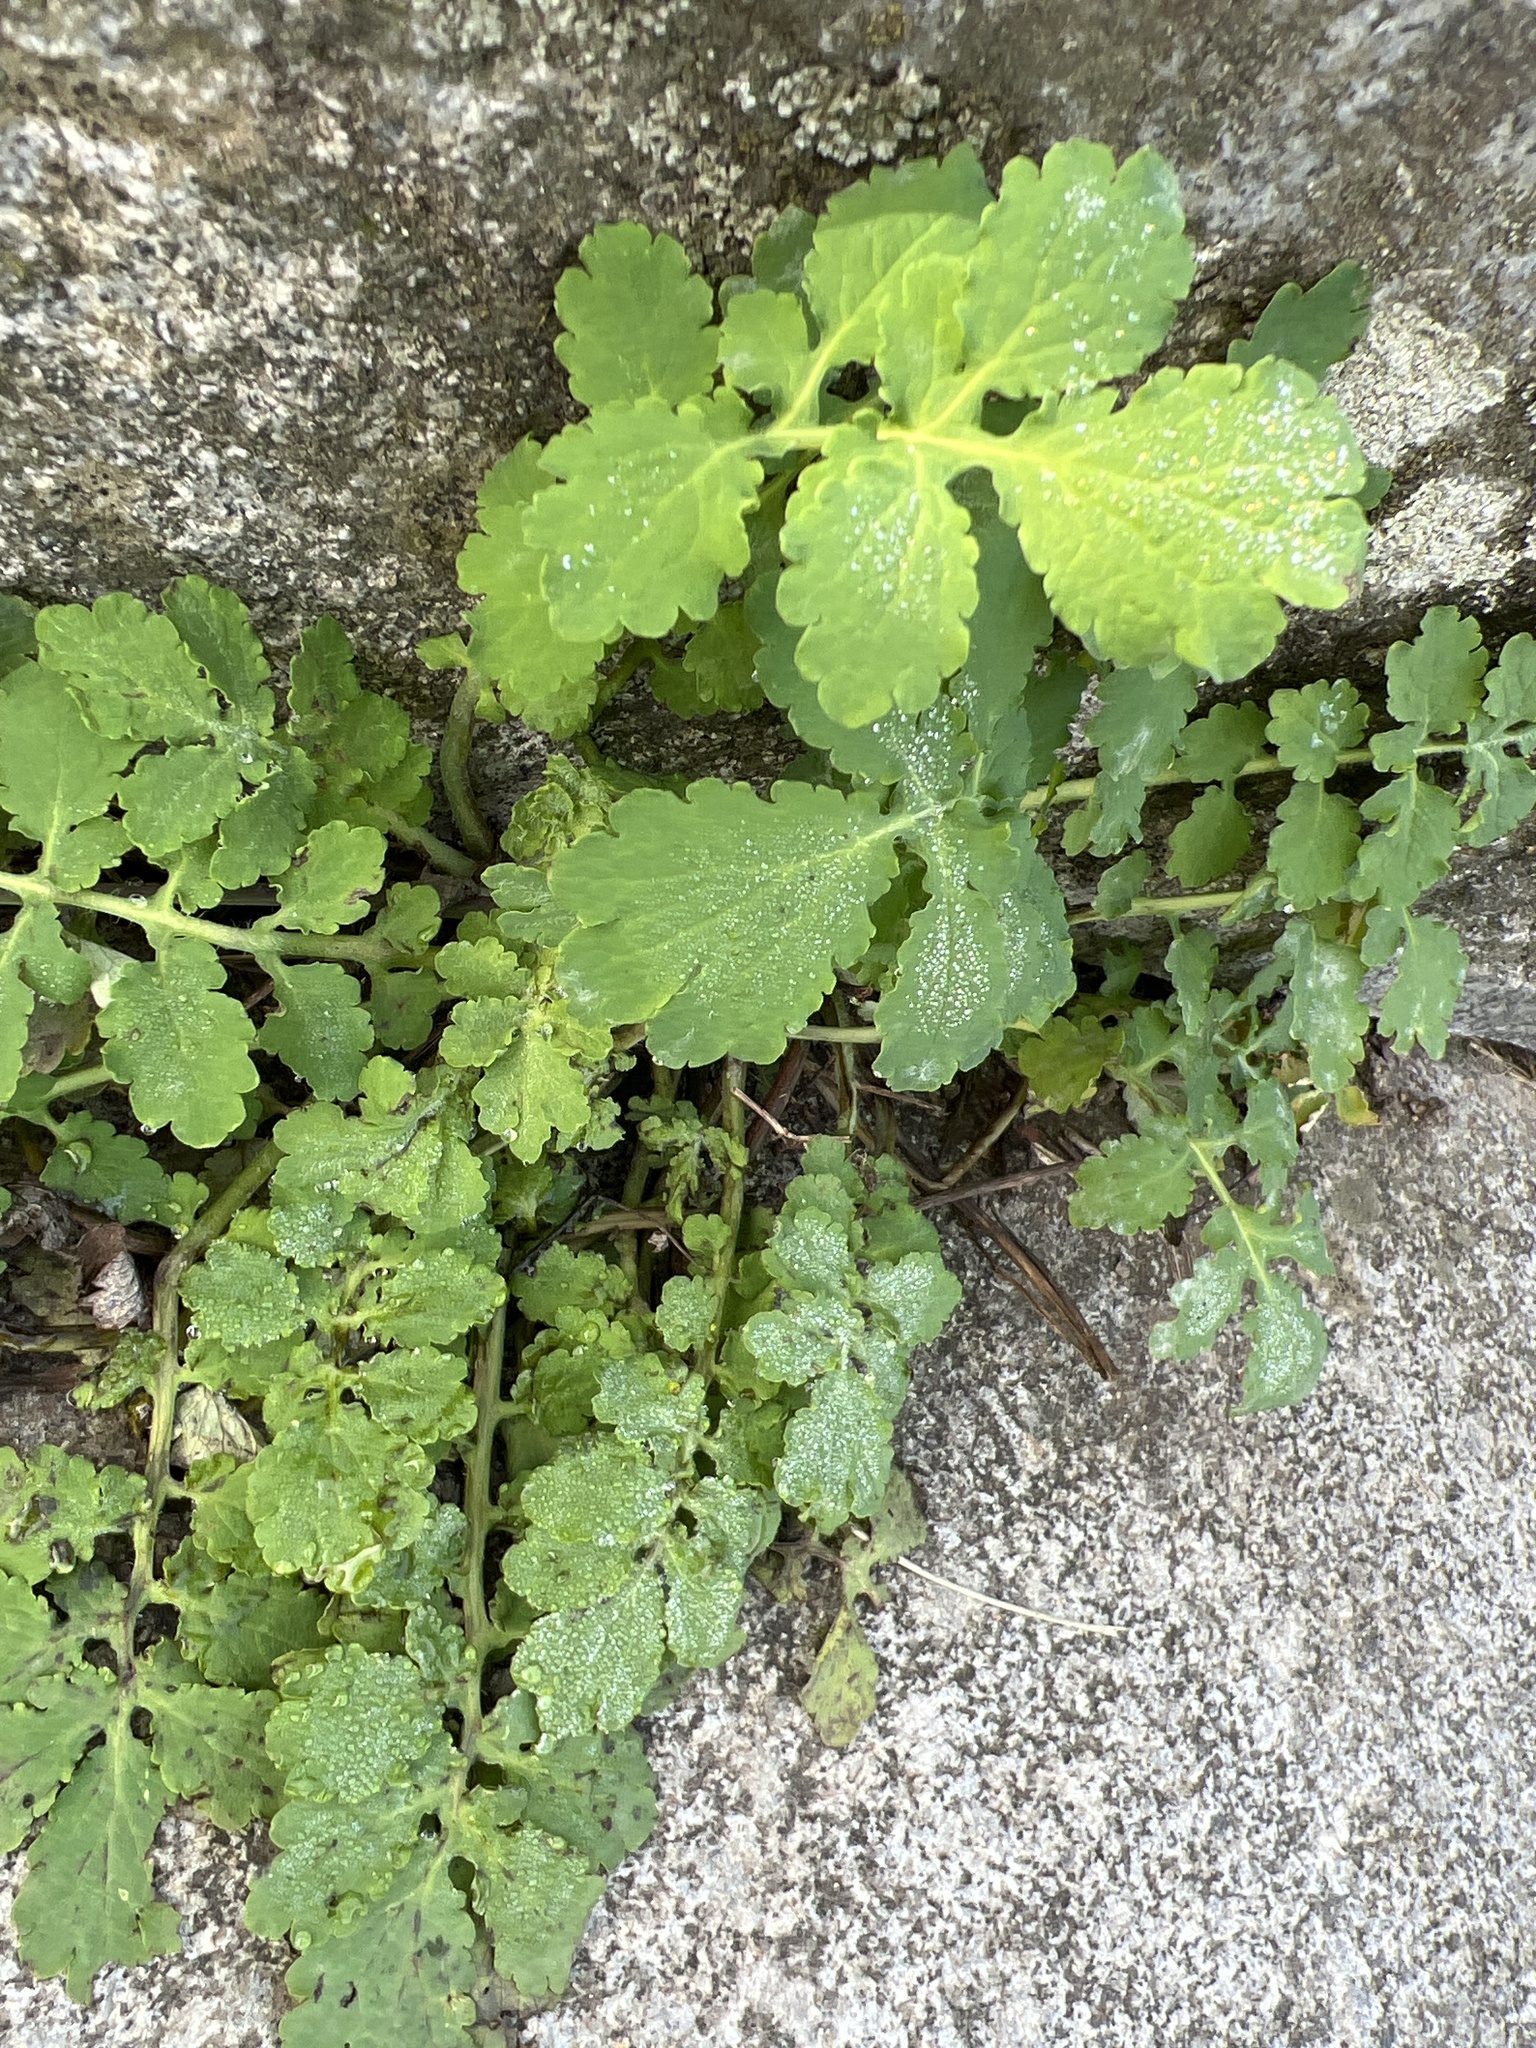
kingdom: Plantae
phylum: Tracheophyta
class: Magnoliopsida
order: Ranunculales
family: Papaveraceae
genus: Chelidonium
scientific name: Chelidonium majus
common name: Greater celandine
